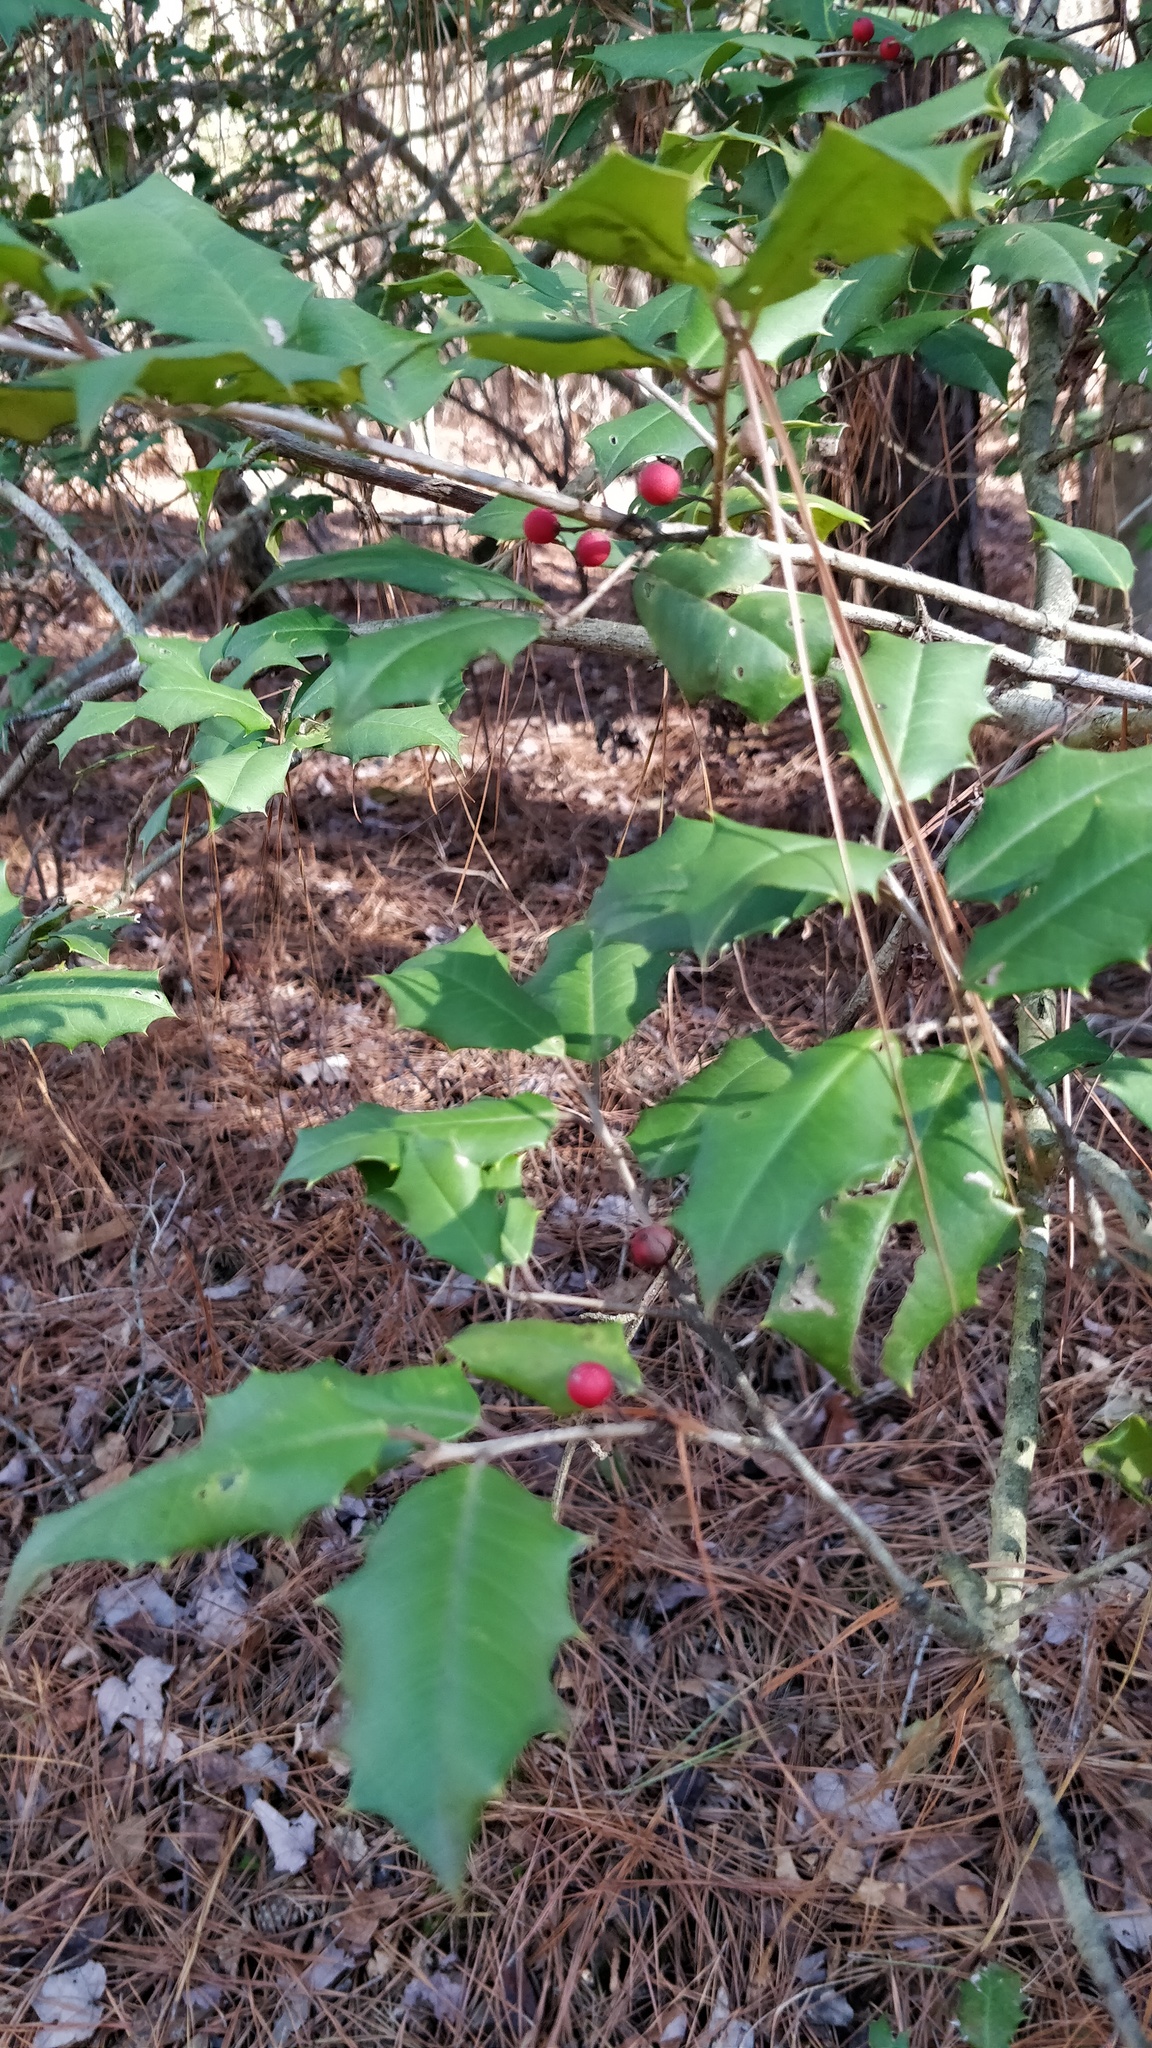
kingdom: Plantae
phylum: Tracheophyta
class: Magnoliopsida
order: Aquifoliales
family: Aquifoliaceae
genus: Ilex
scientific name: Ilex opaca
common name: American holly
